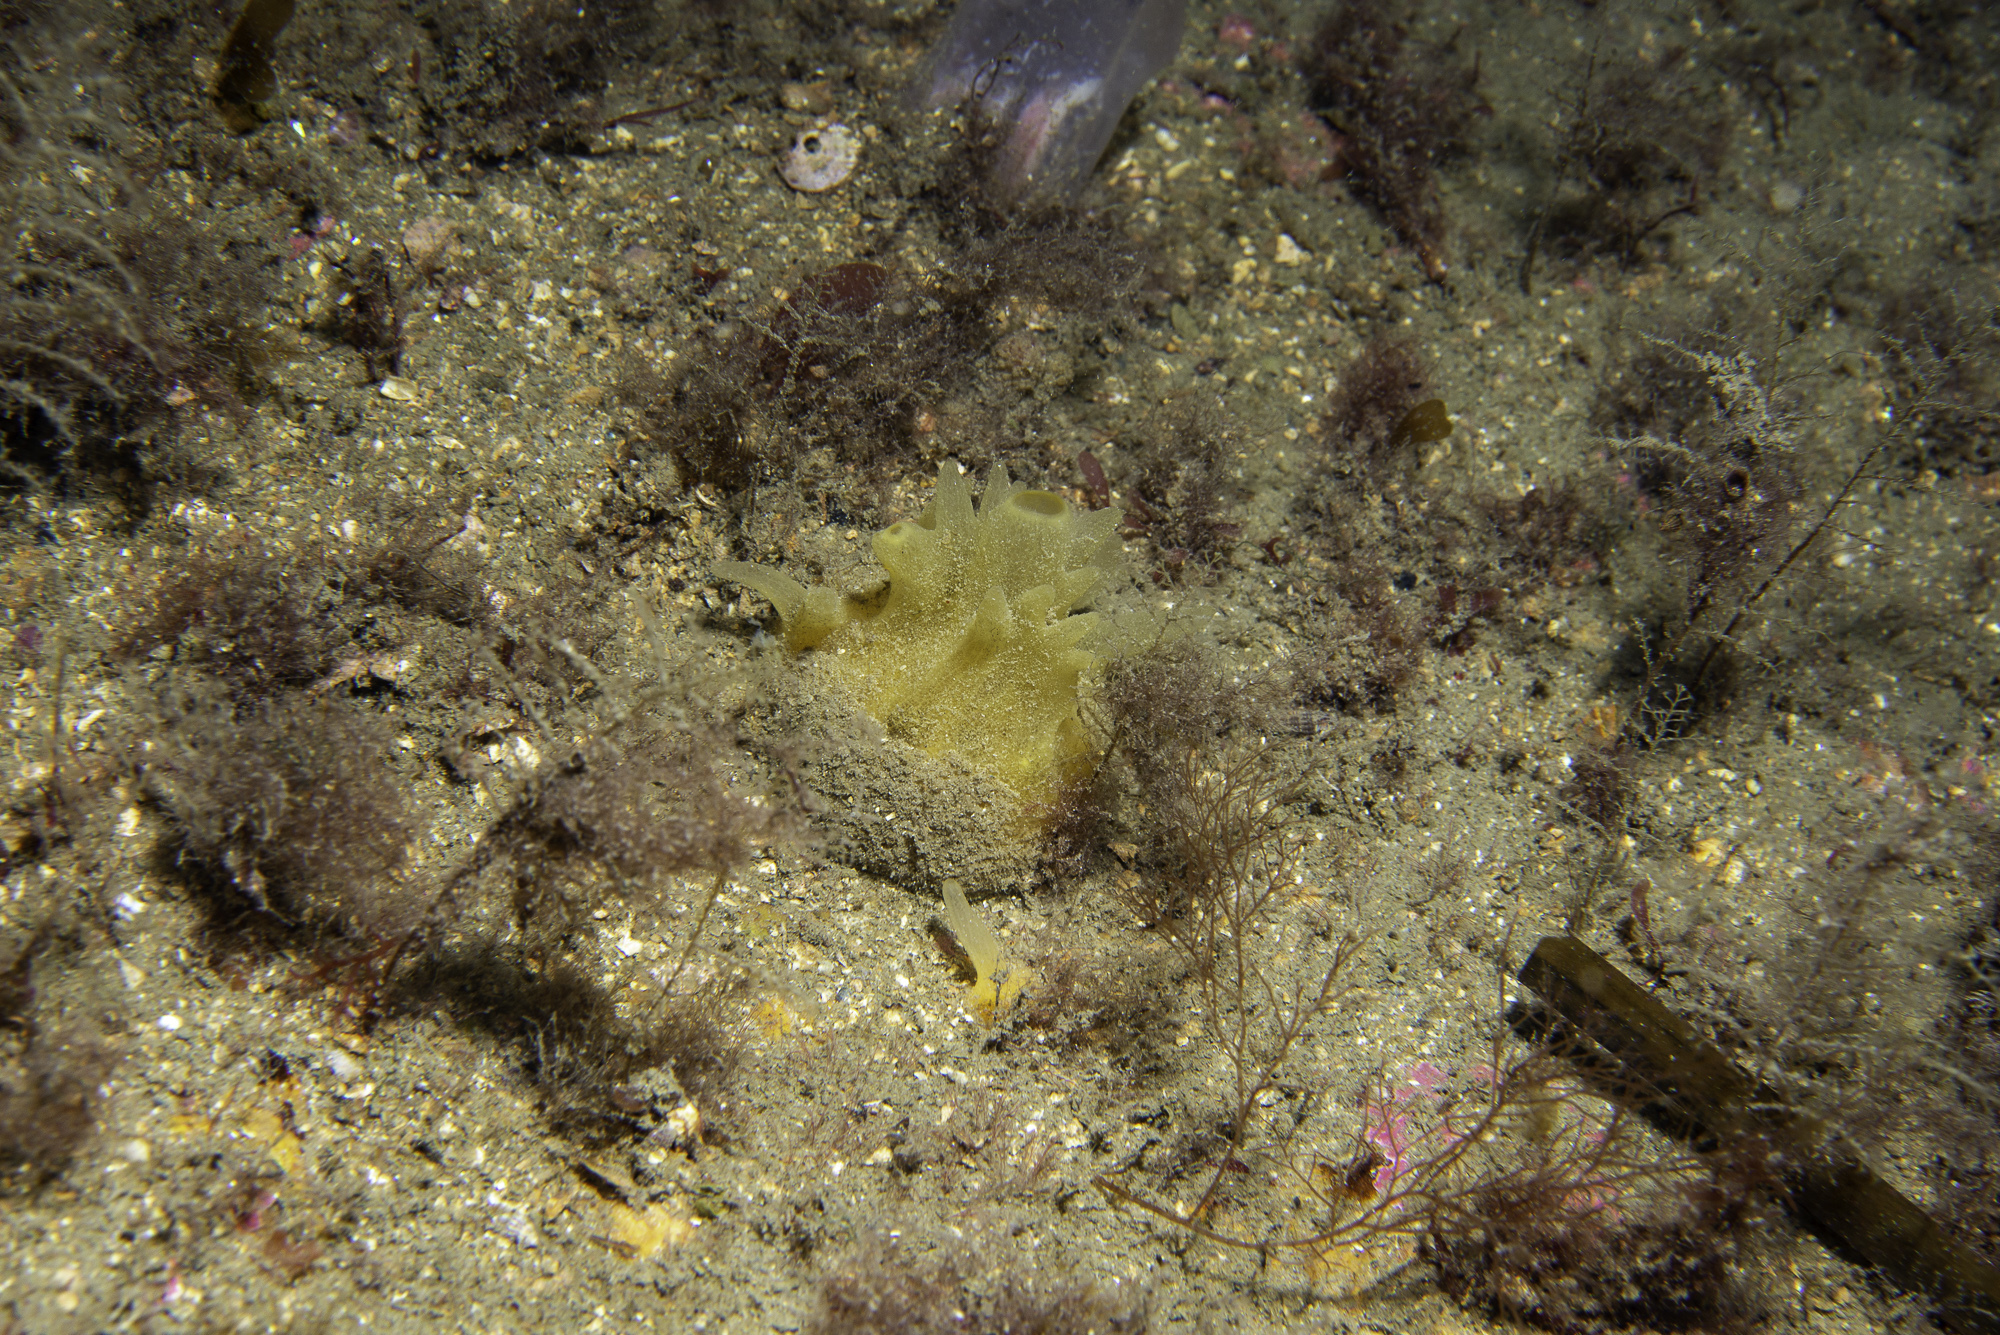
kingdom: Animalia
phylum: Porifera
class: Demospongiae
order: Polymastiida
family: Polymastiidae
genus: Polymastia
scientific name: Polymastia boletiformis
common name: Massive horny sponge
